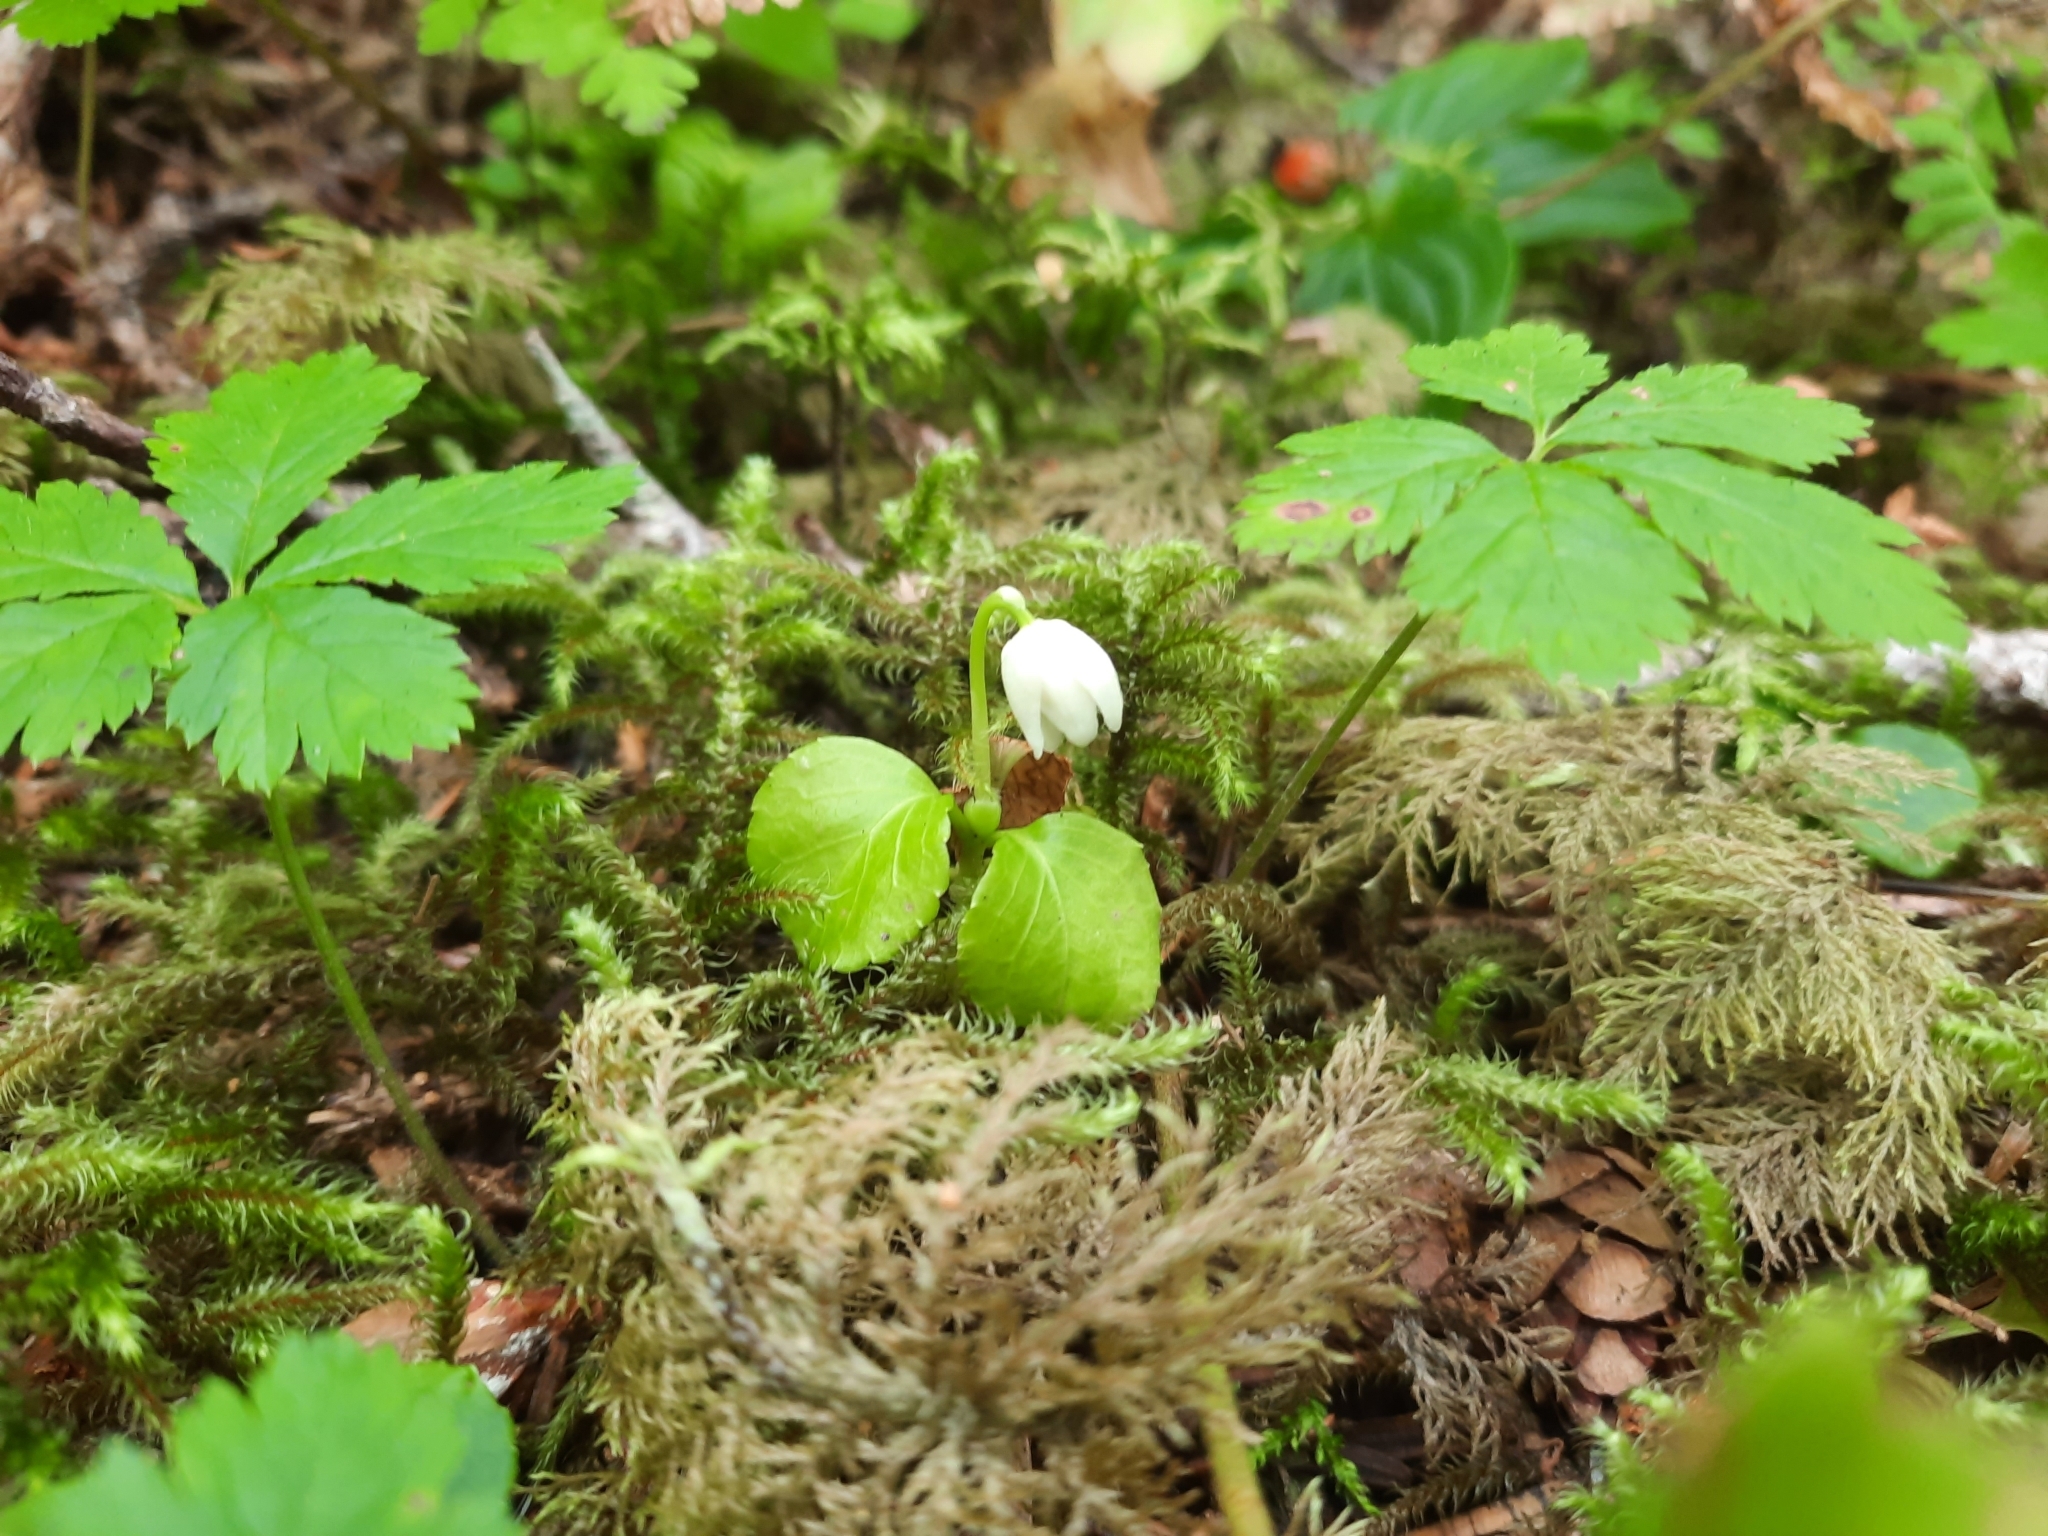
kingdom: Plantae
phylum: Tracheophyta
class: Magnoliopsida
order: Ericales
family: Ericaceae
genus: Moneses
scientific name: Moneses uniflora
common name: One-flowered wintergreen
